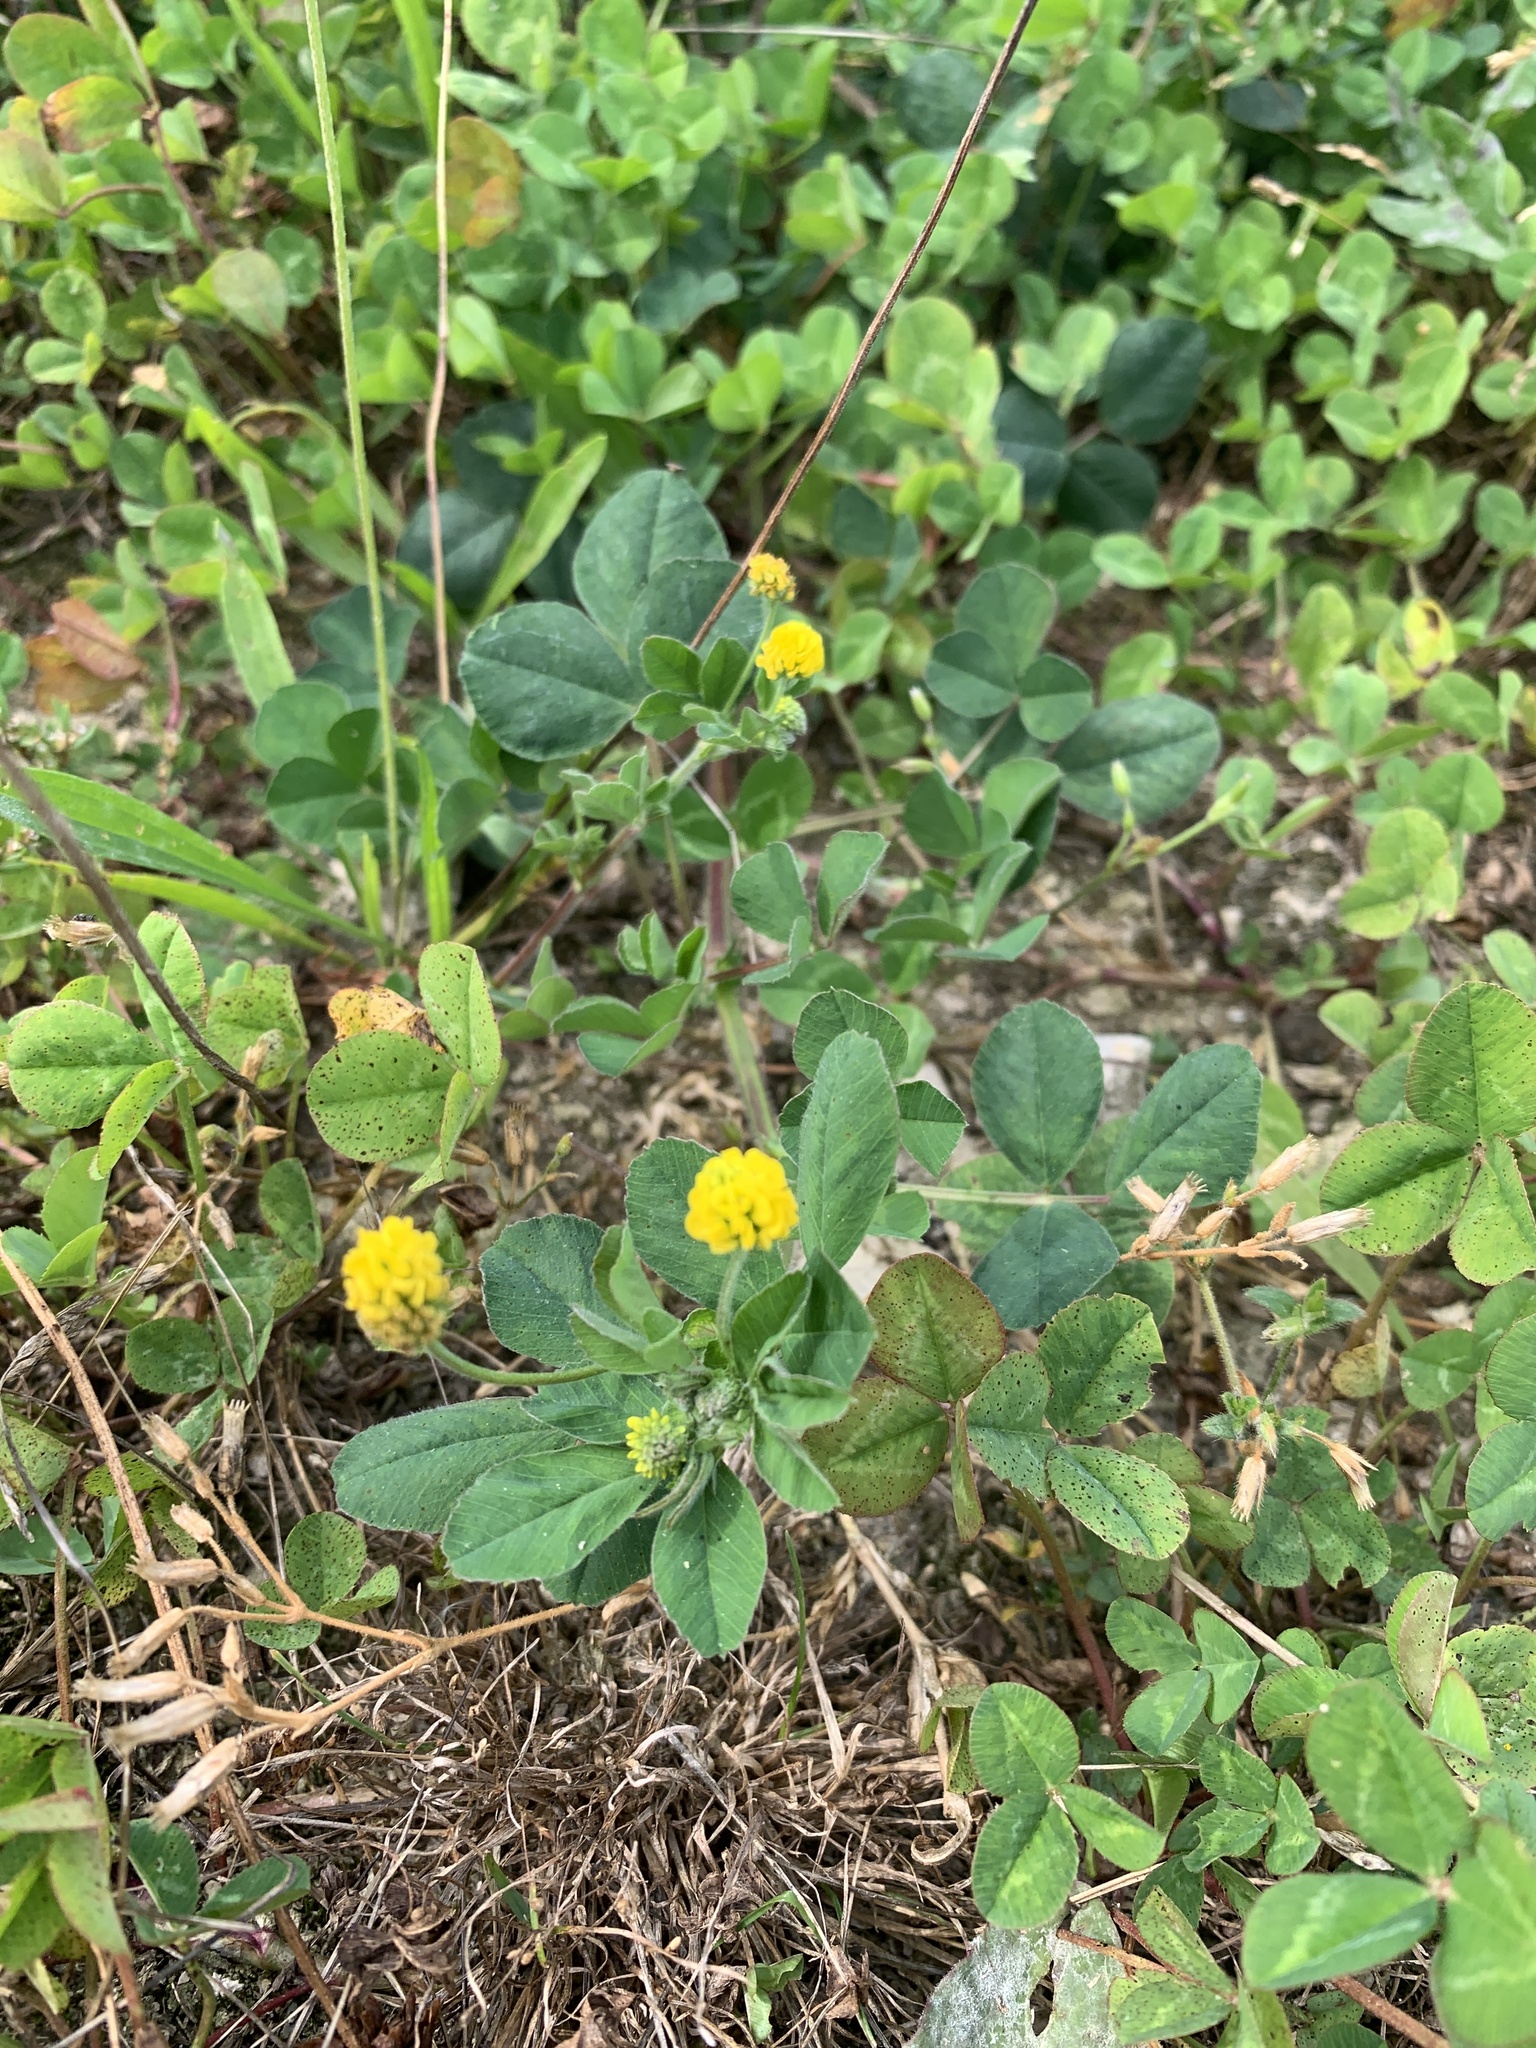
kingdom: Plantae
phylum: Tracheophyta
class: Magnoliopsida
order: Fabales
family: Fabaceae
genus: Medicago
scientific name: Medicago lupulina
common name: Black medick
